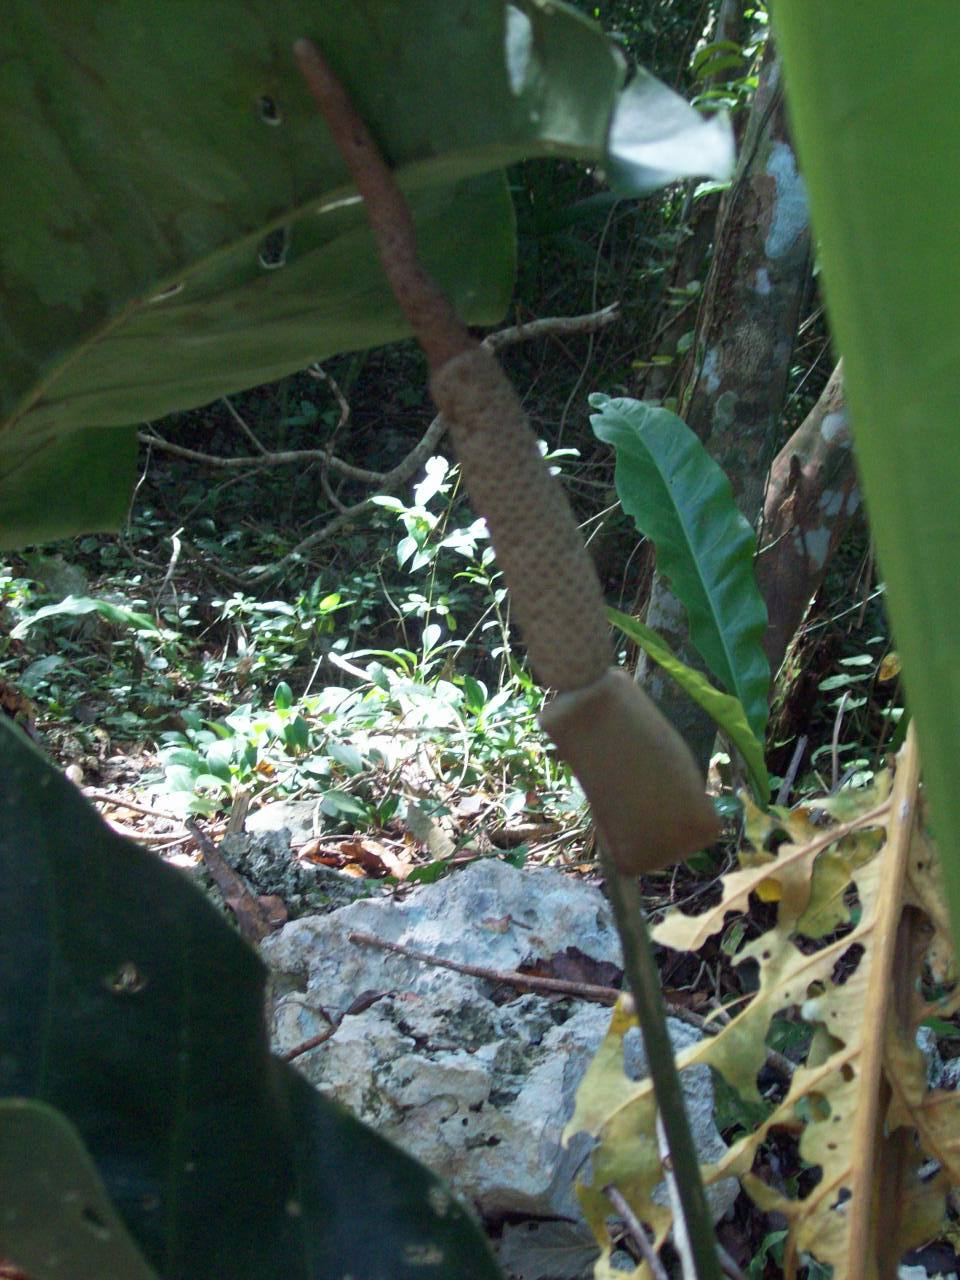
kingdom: Plantae
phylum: Tracheophyta
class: Liliopsida
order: Alismatales
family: Araceae
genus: Anthurium
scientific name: Anthurium schlechtendalii
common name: Laceleaf
